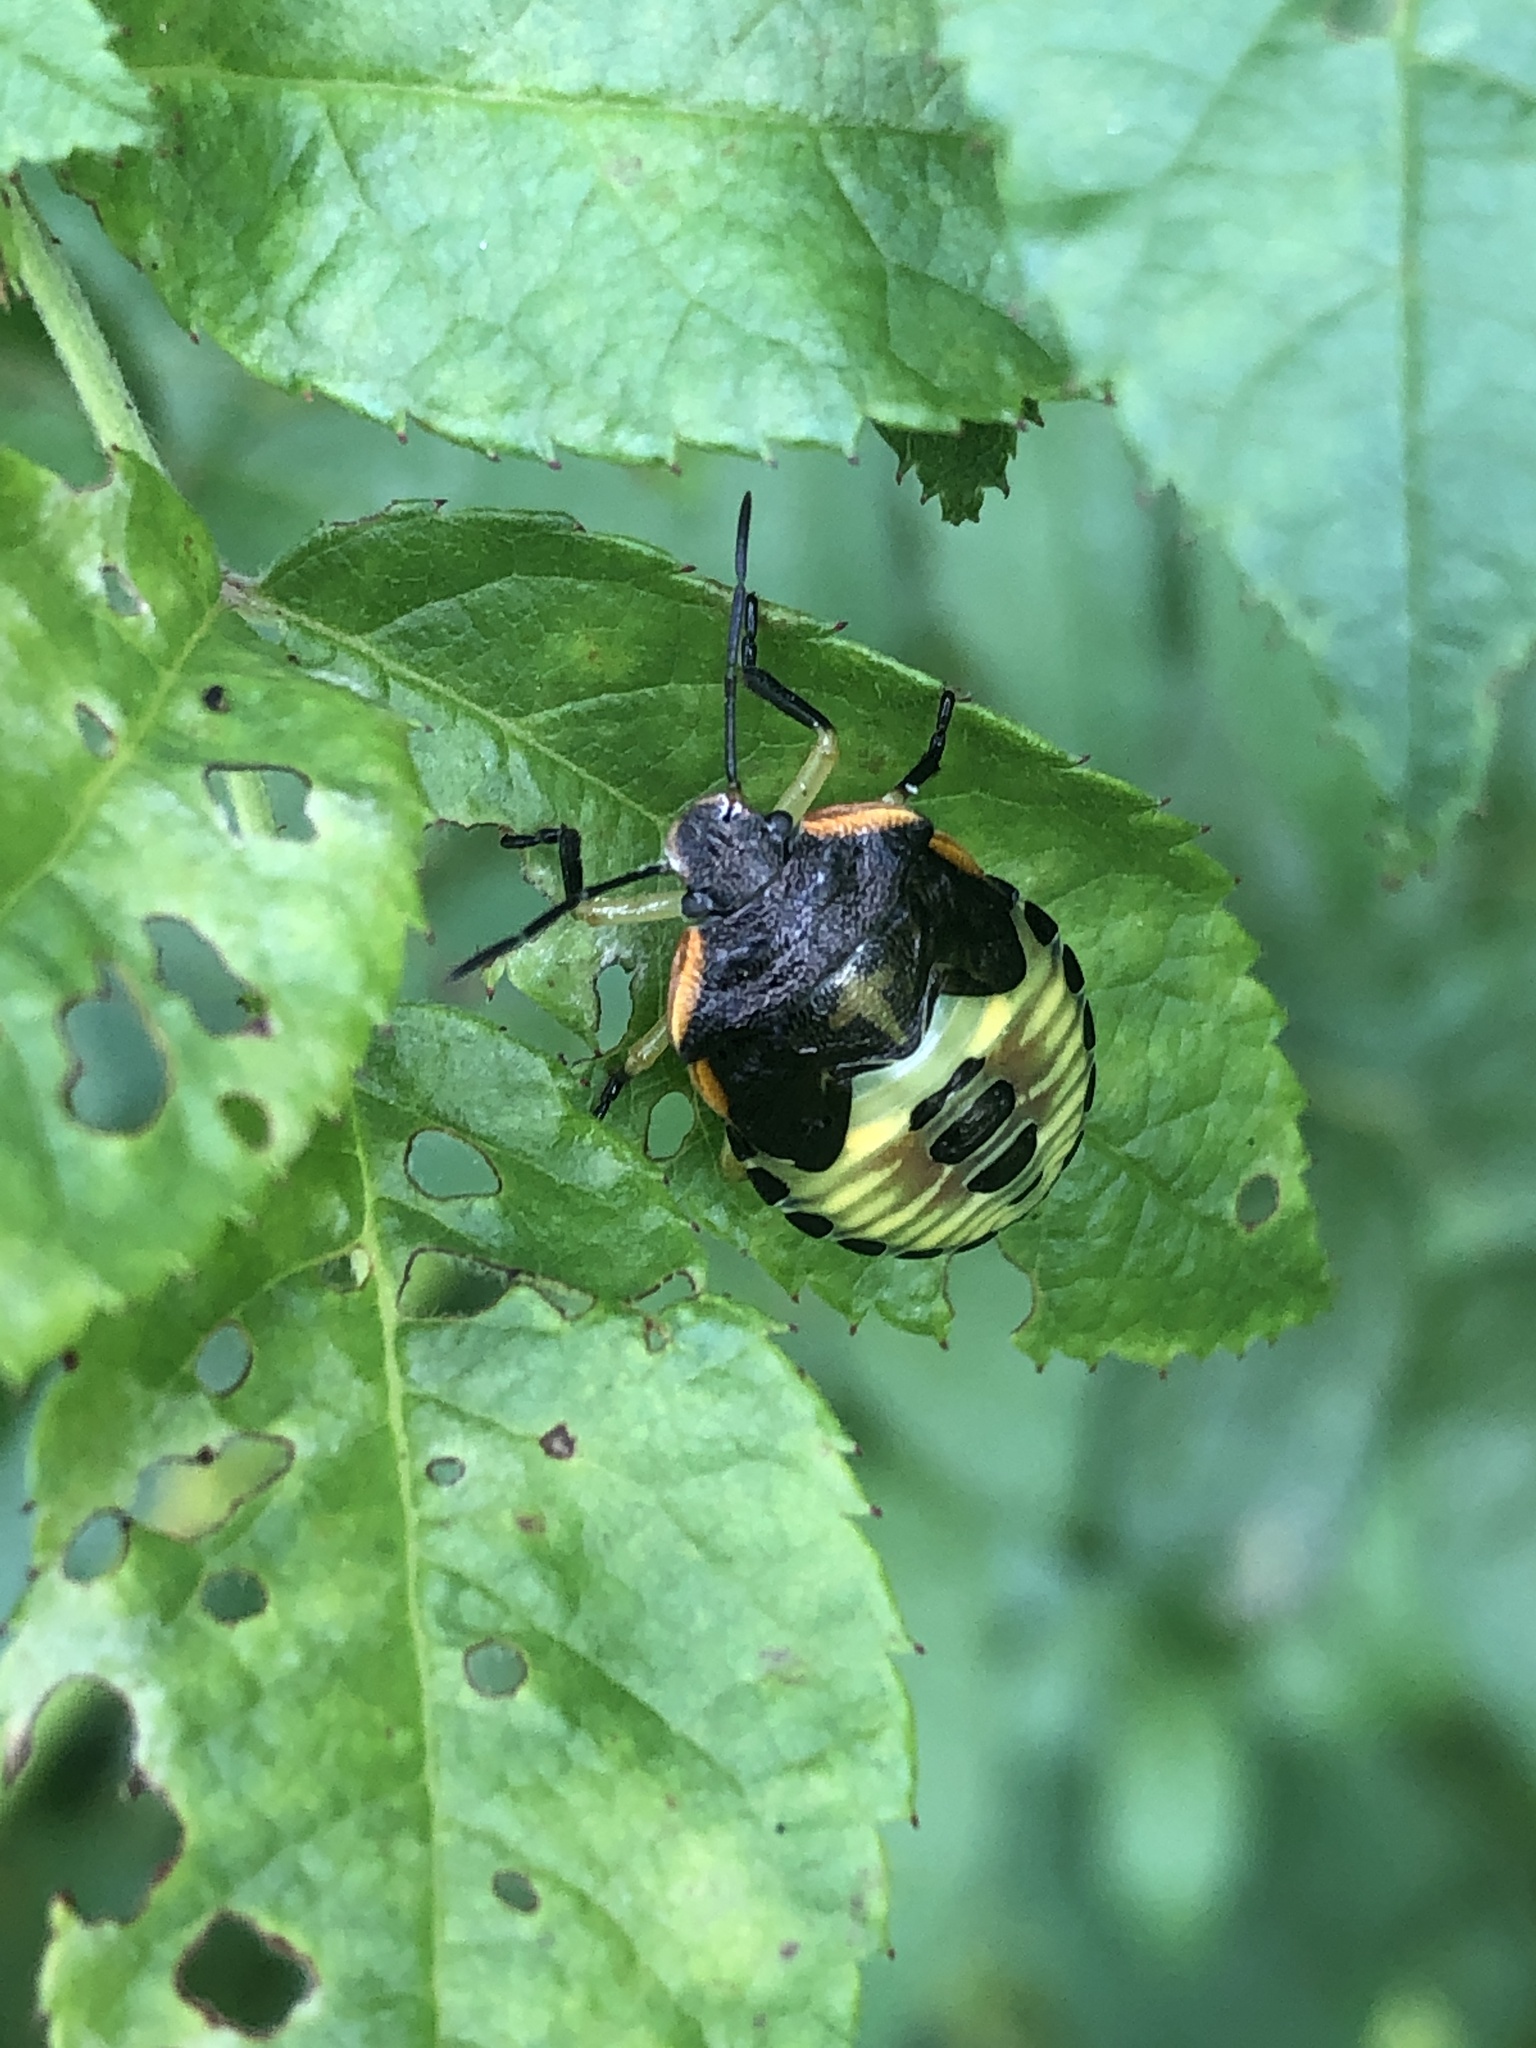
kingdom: Animalia
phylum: Arthropoda
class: Insecta
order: Hemiptera
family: Pentatomidae
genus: Chinavia
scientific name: Chinavia hilaris
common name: Green stink bug
